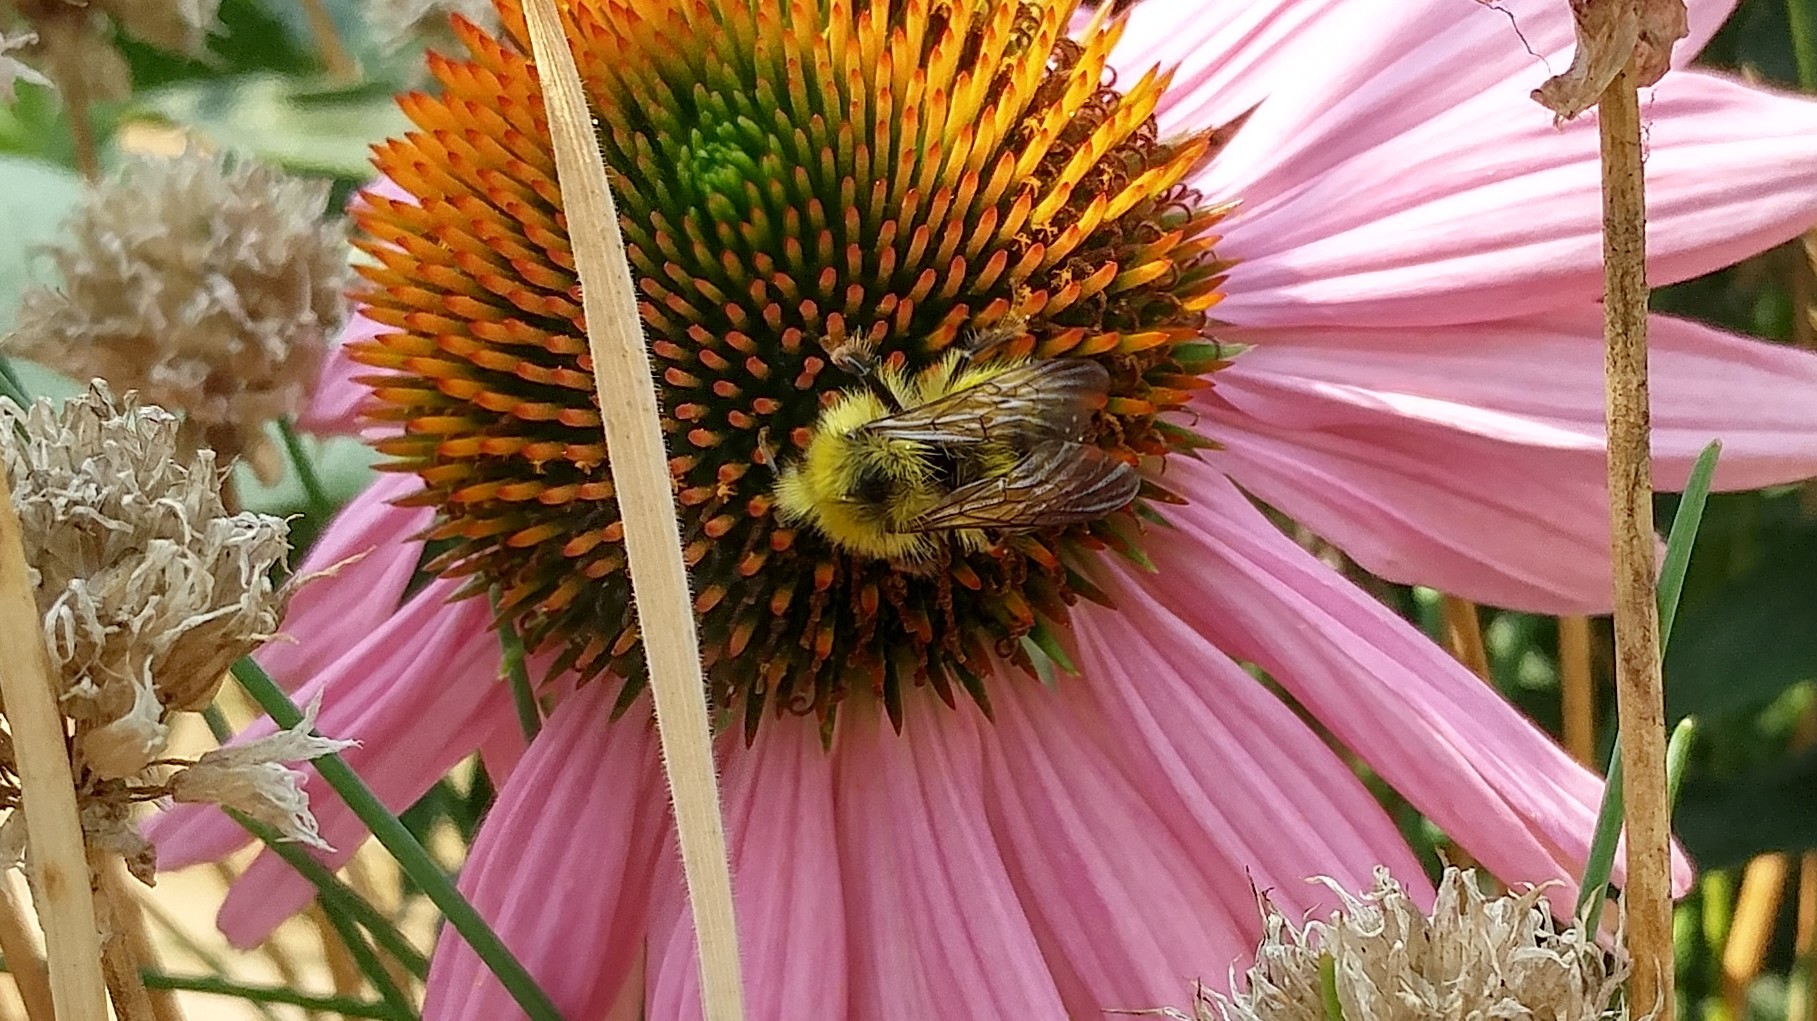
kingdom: Animalia
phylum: Arthropoda
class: Insecta
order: Hymenoptera
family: Apidae
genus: Pyrobombus
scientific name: Pyrobombus
